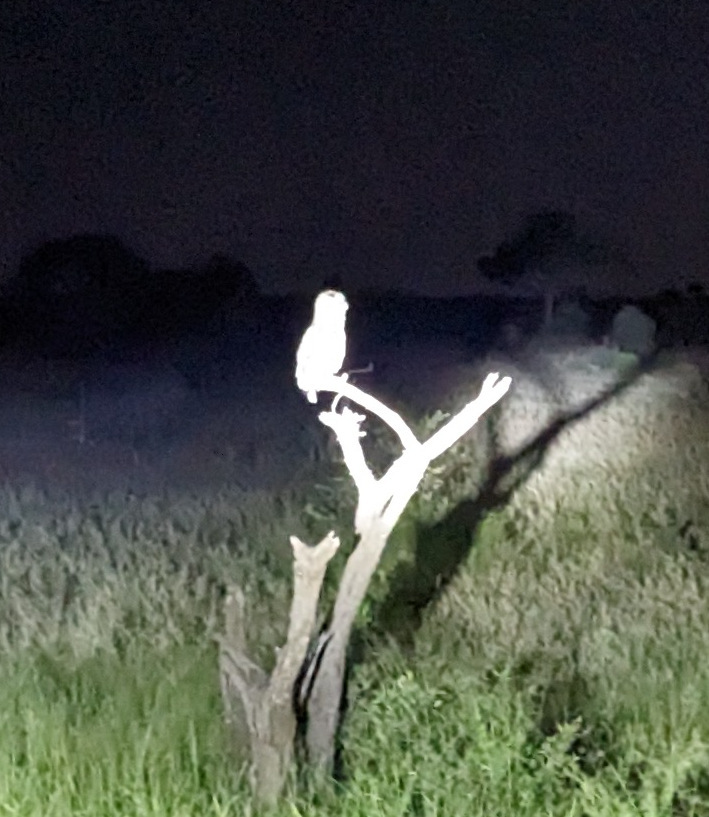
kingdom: Animalia
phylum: Chordata
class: Aves
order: Strigiformes
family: Strigidae
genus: Bubo
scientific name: Bubo lacteus
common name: Verreaux's eagle-owl
